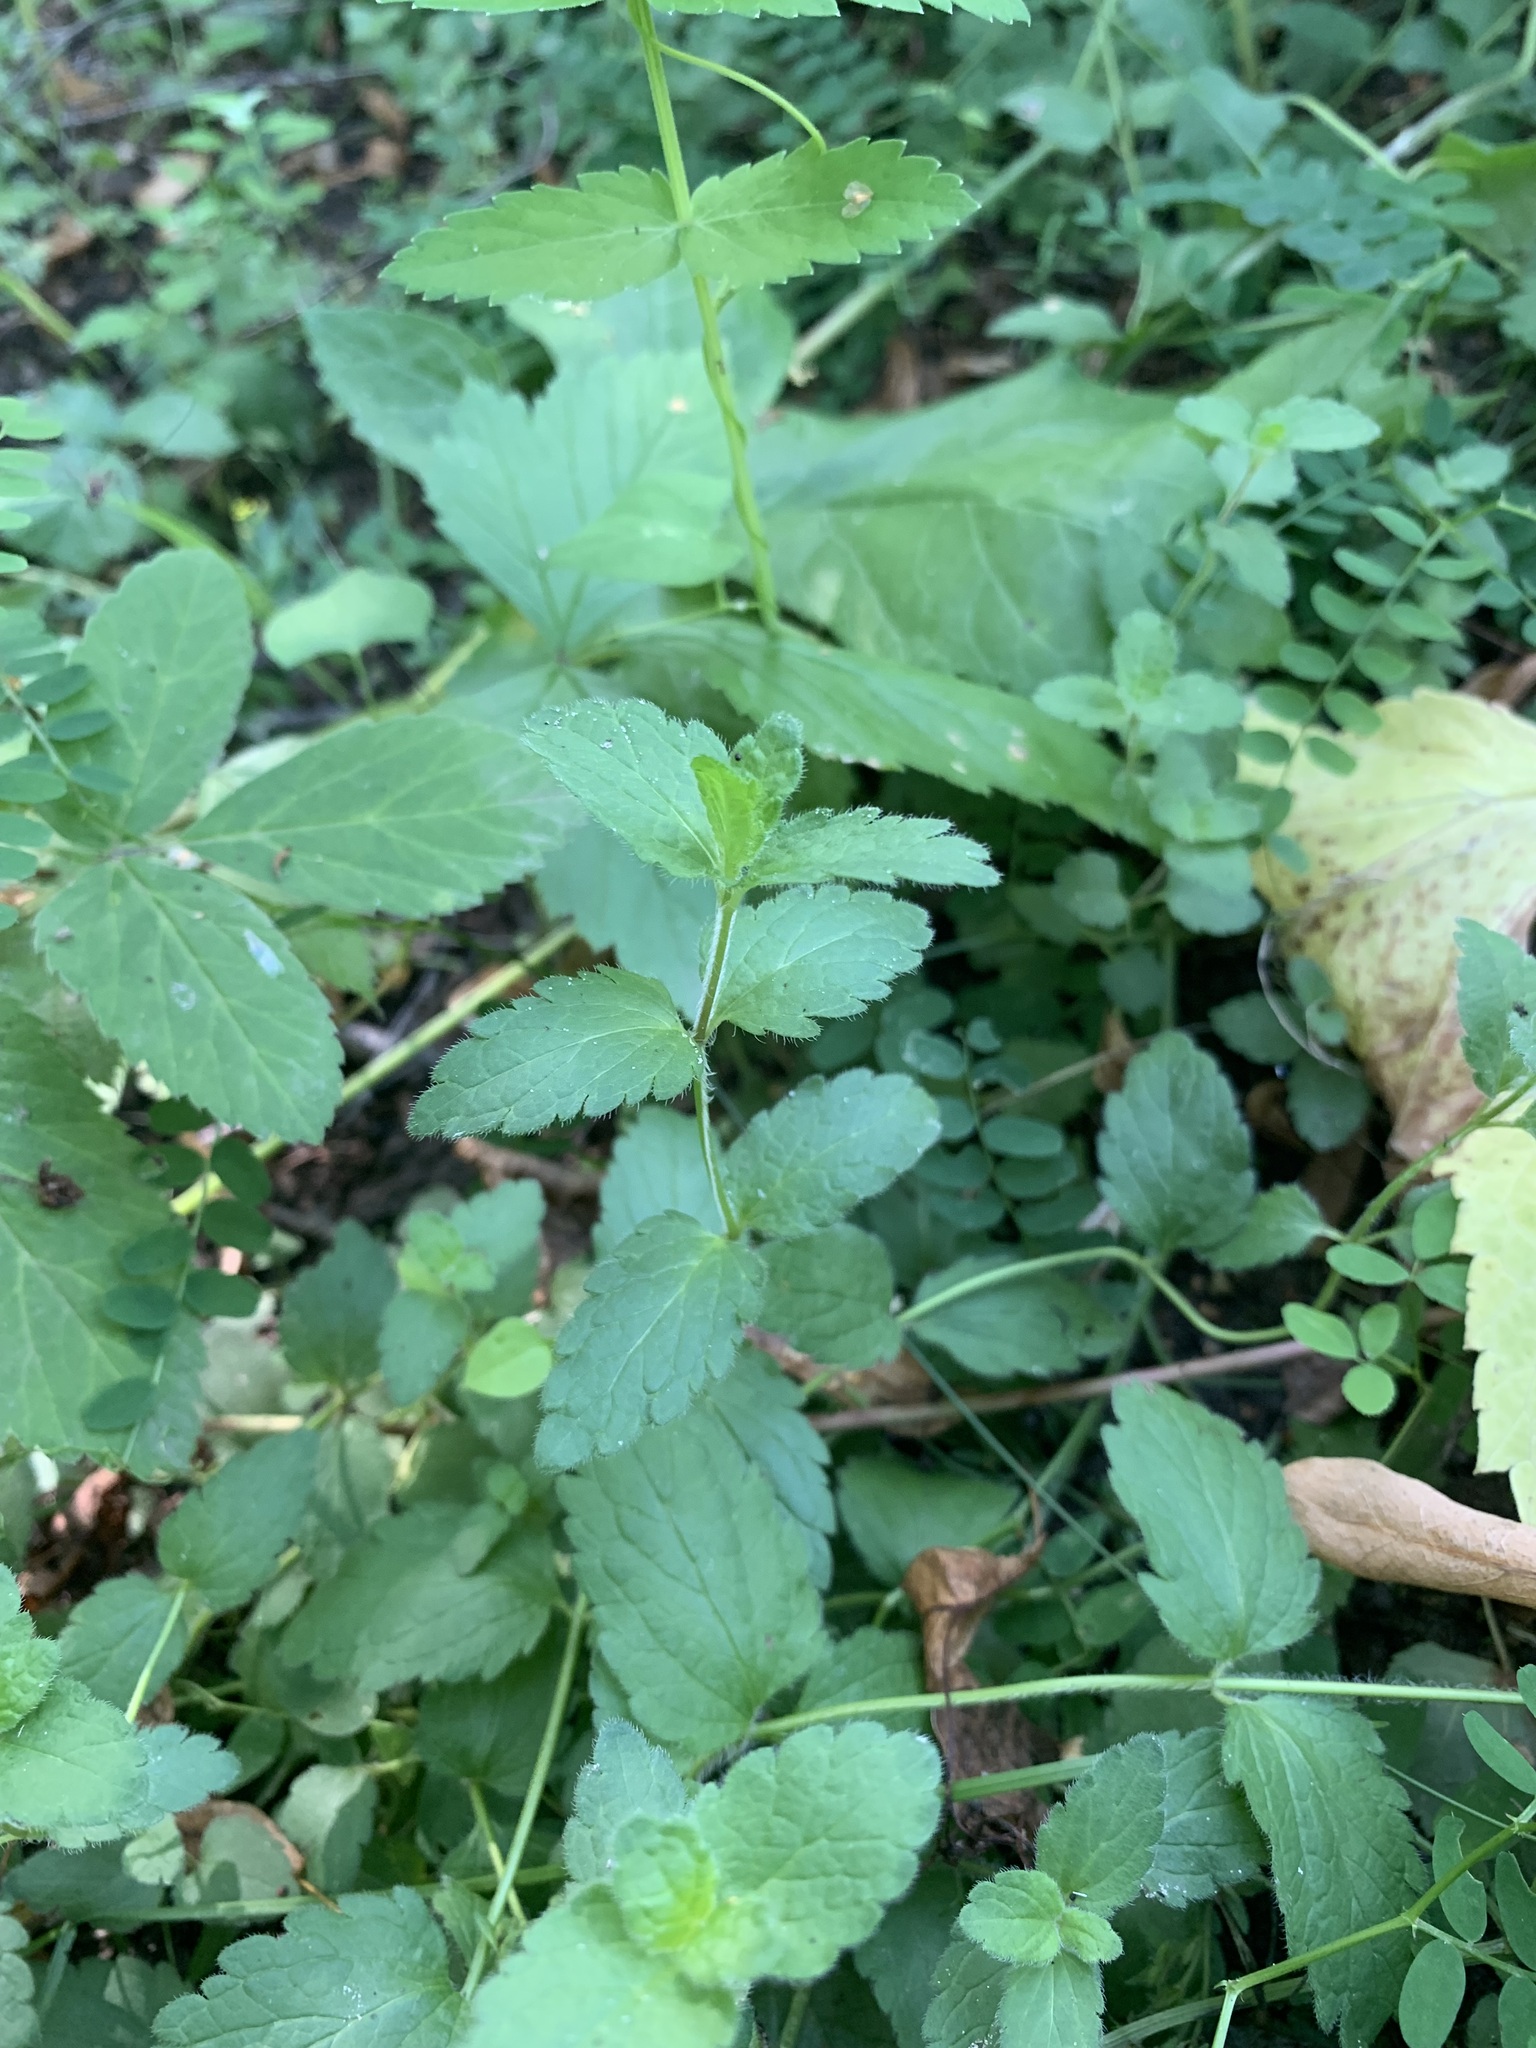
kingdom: Plantae
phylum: Tracheophyta
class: Magnoliopsida
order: Lamiales
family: Plantaginaceae
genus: Veronica
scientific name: Veronica chamaedrys
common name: Germander speedwell
